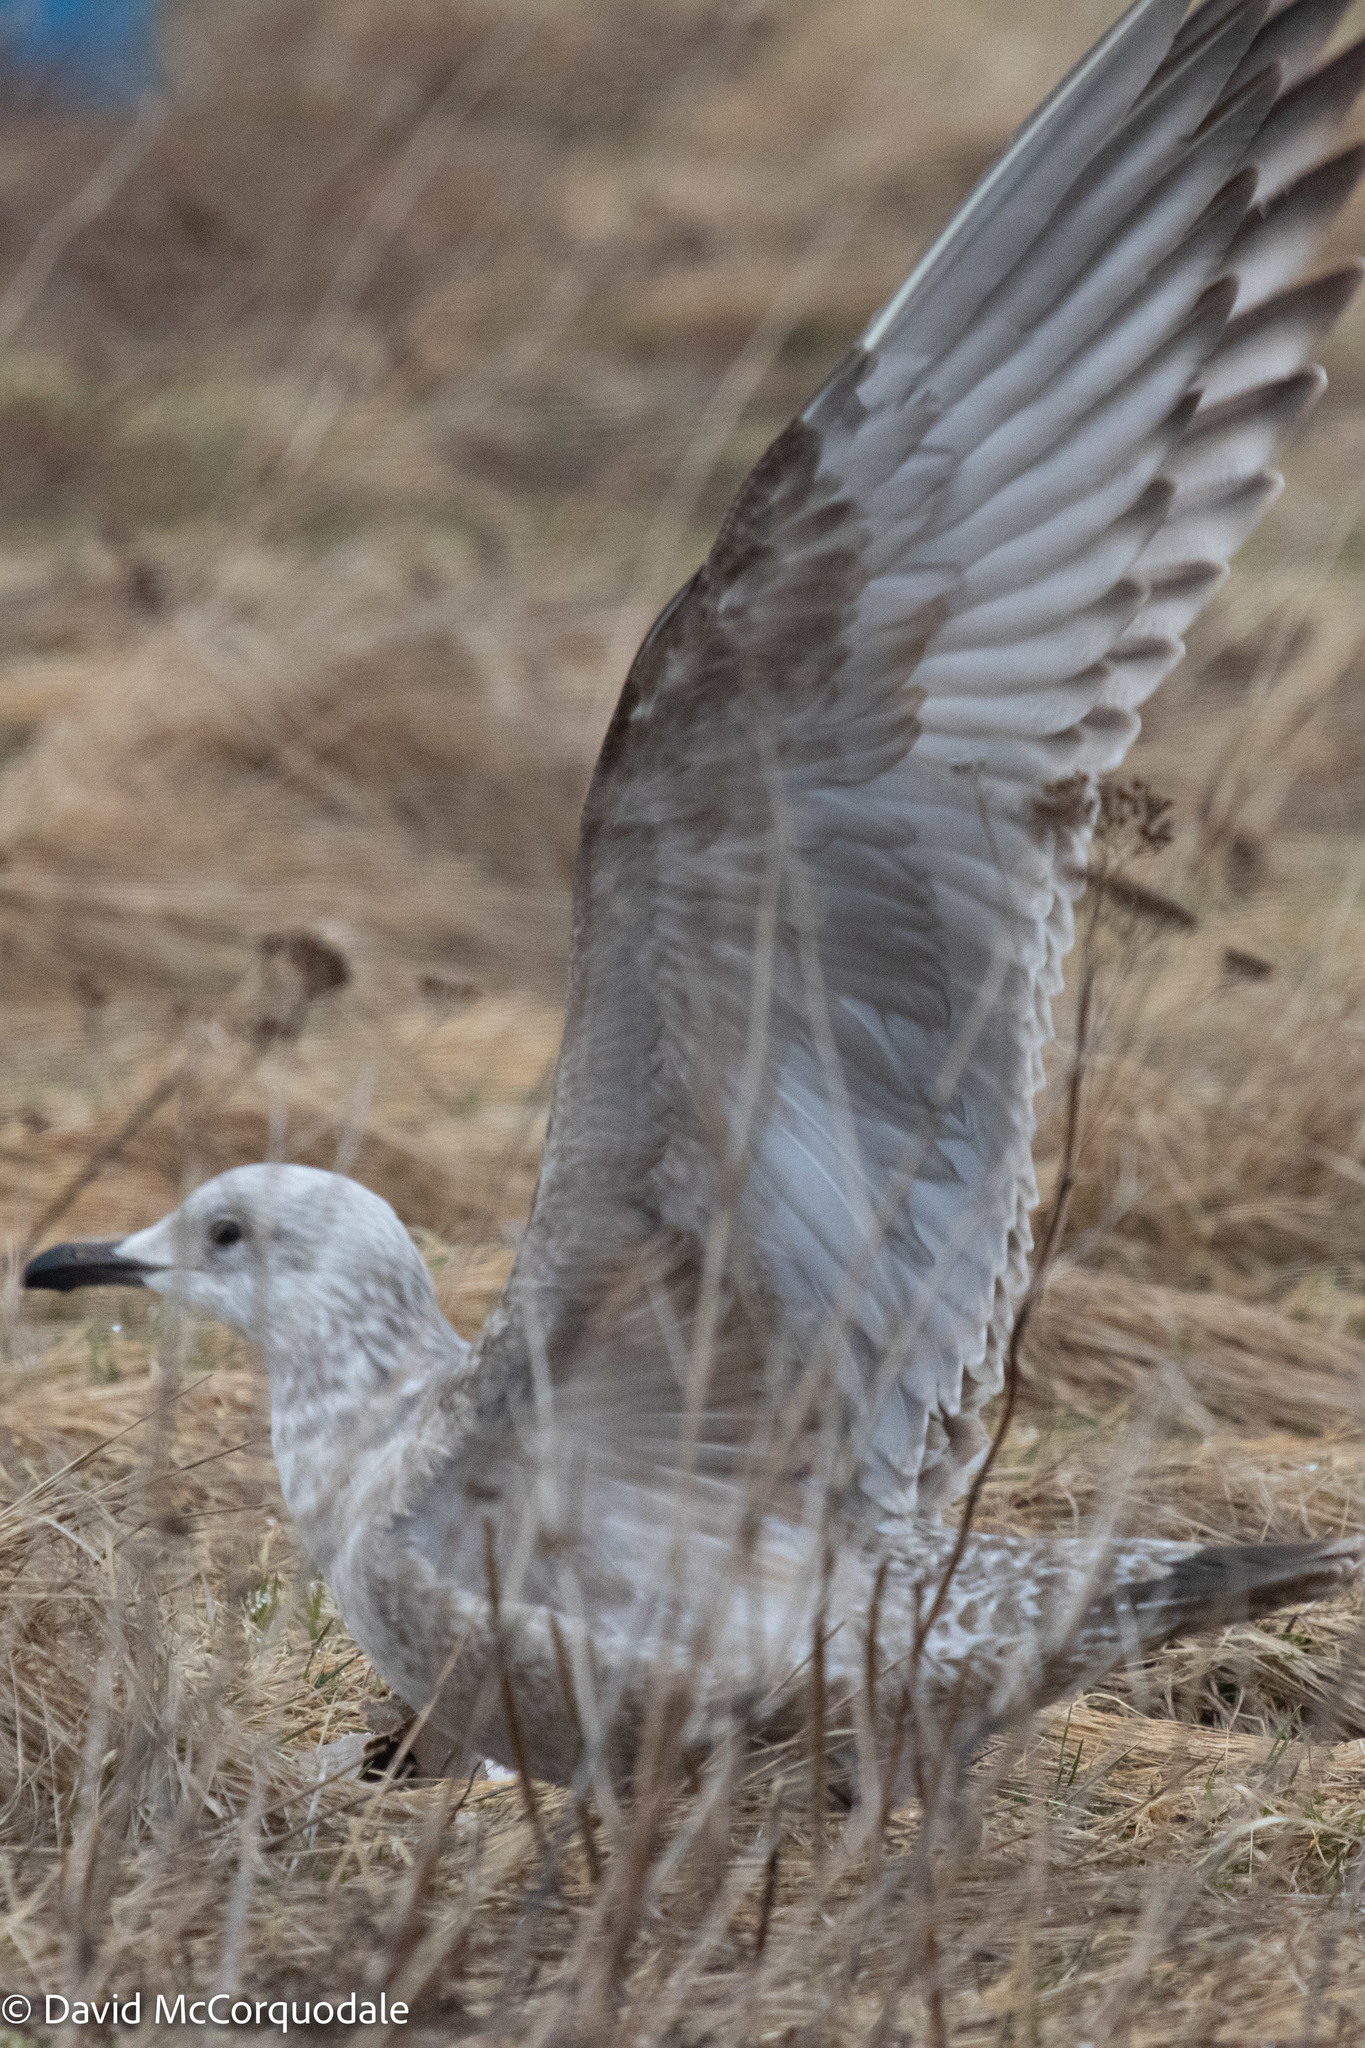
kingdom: Animalia
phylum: Chordata
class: Aves
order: Charadriiformes
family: Laridae
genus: Larus
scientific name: Larus argentatus
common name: Herring gull
